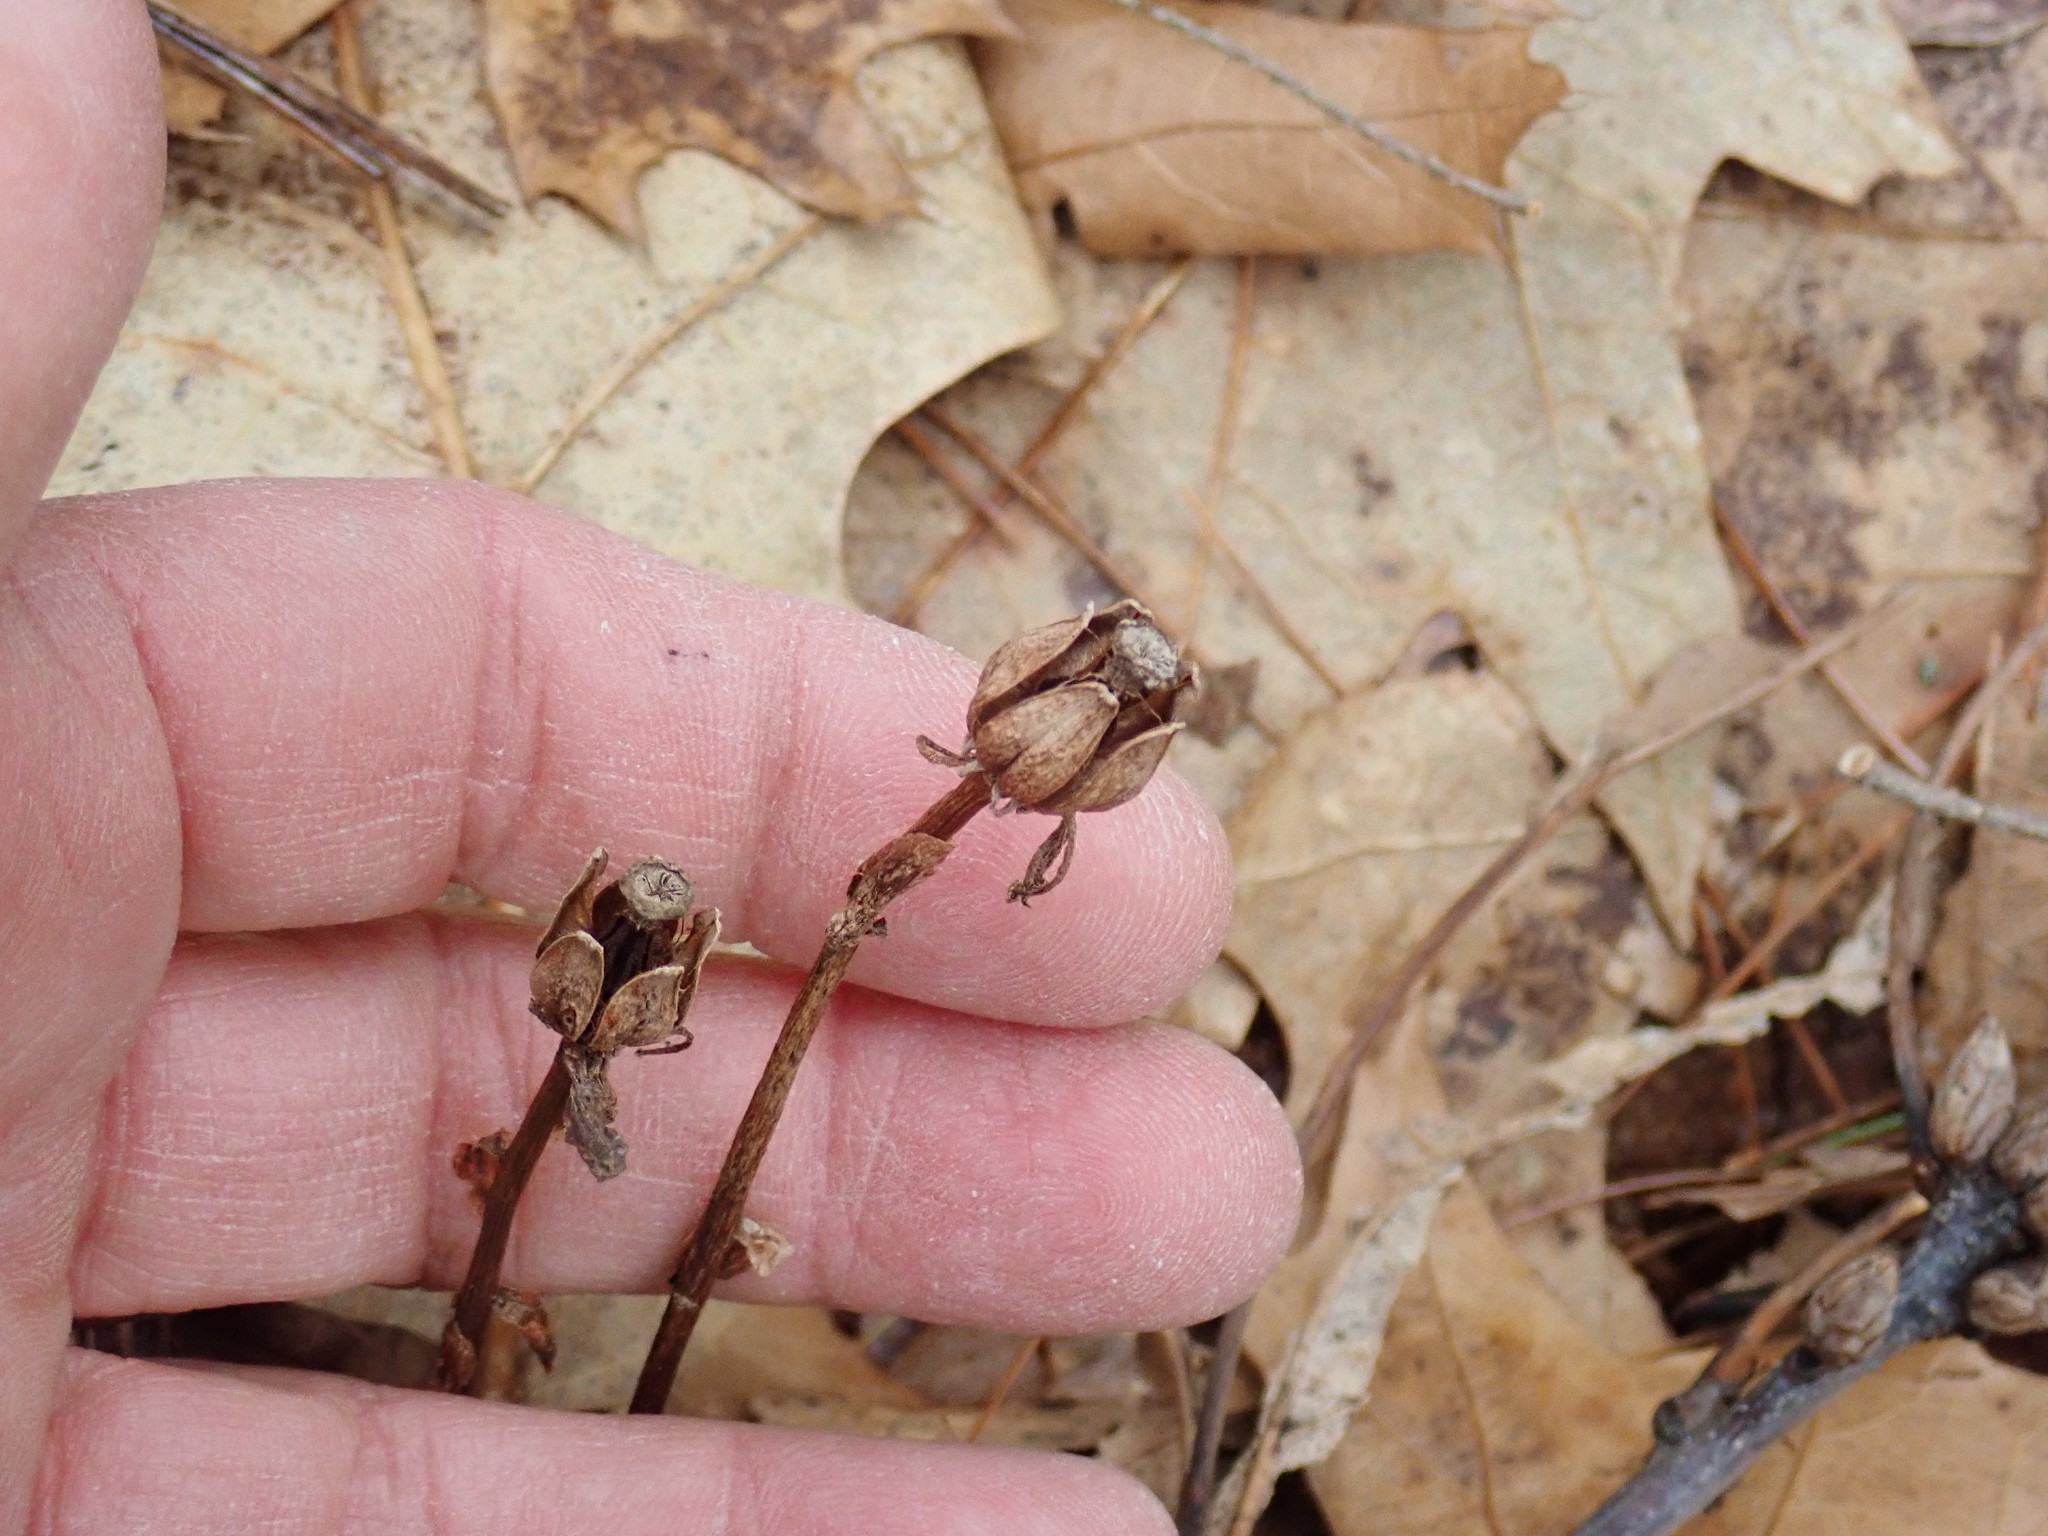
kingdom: Plantae
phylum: Tracheophyta
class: Magnoliopsida
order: Ericales
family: Ericaceae
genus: Monotropa
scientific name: Monotropa uniflora
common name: Convulsion root
